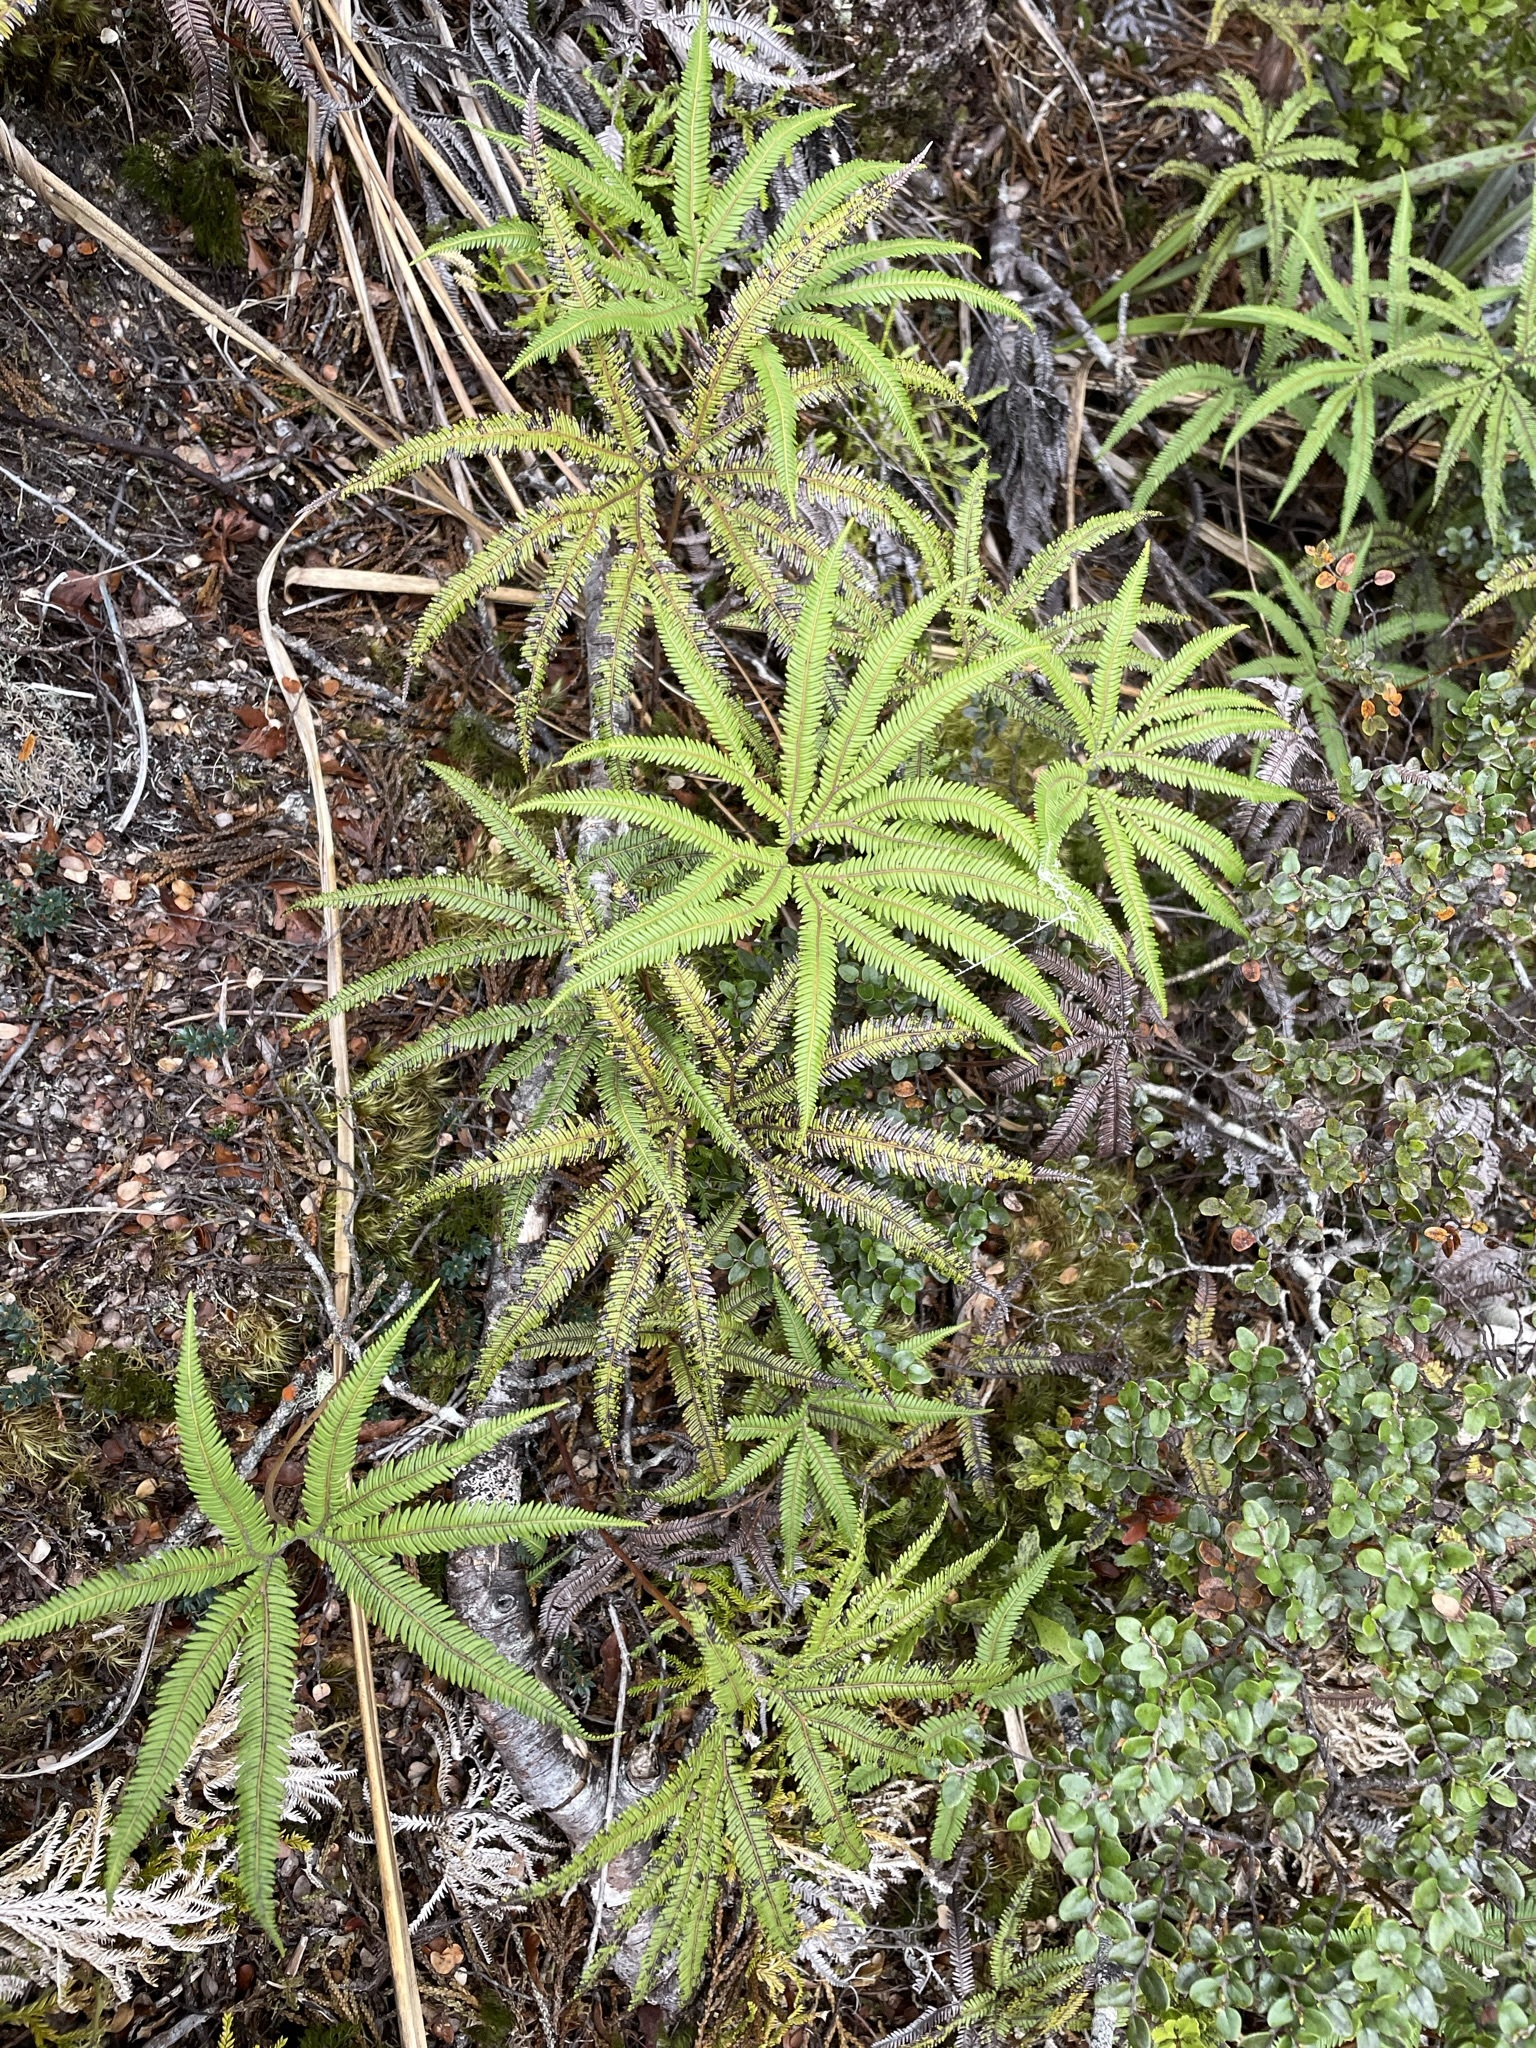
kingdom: Plantae
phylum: Tracheophyta
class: Polypodiopsida
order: Gleicheniales
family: Gleicheniaceae
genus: Sticherus
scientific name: Sticherus cunninghamii
